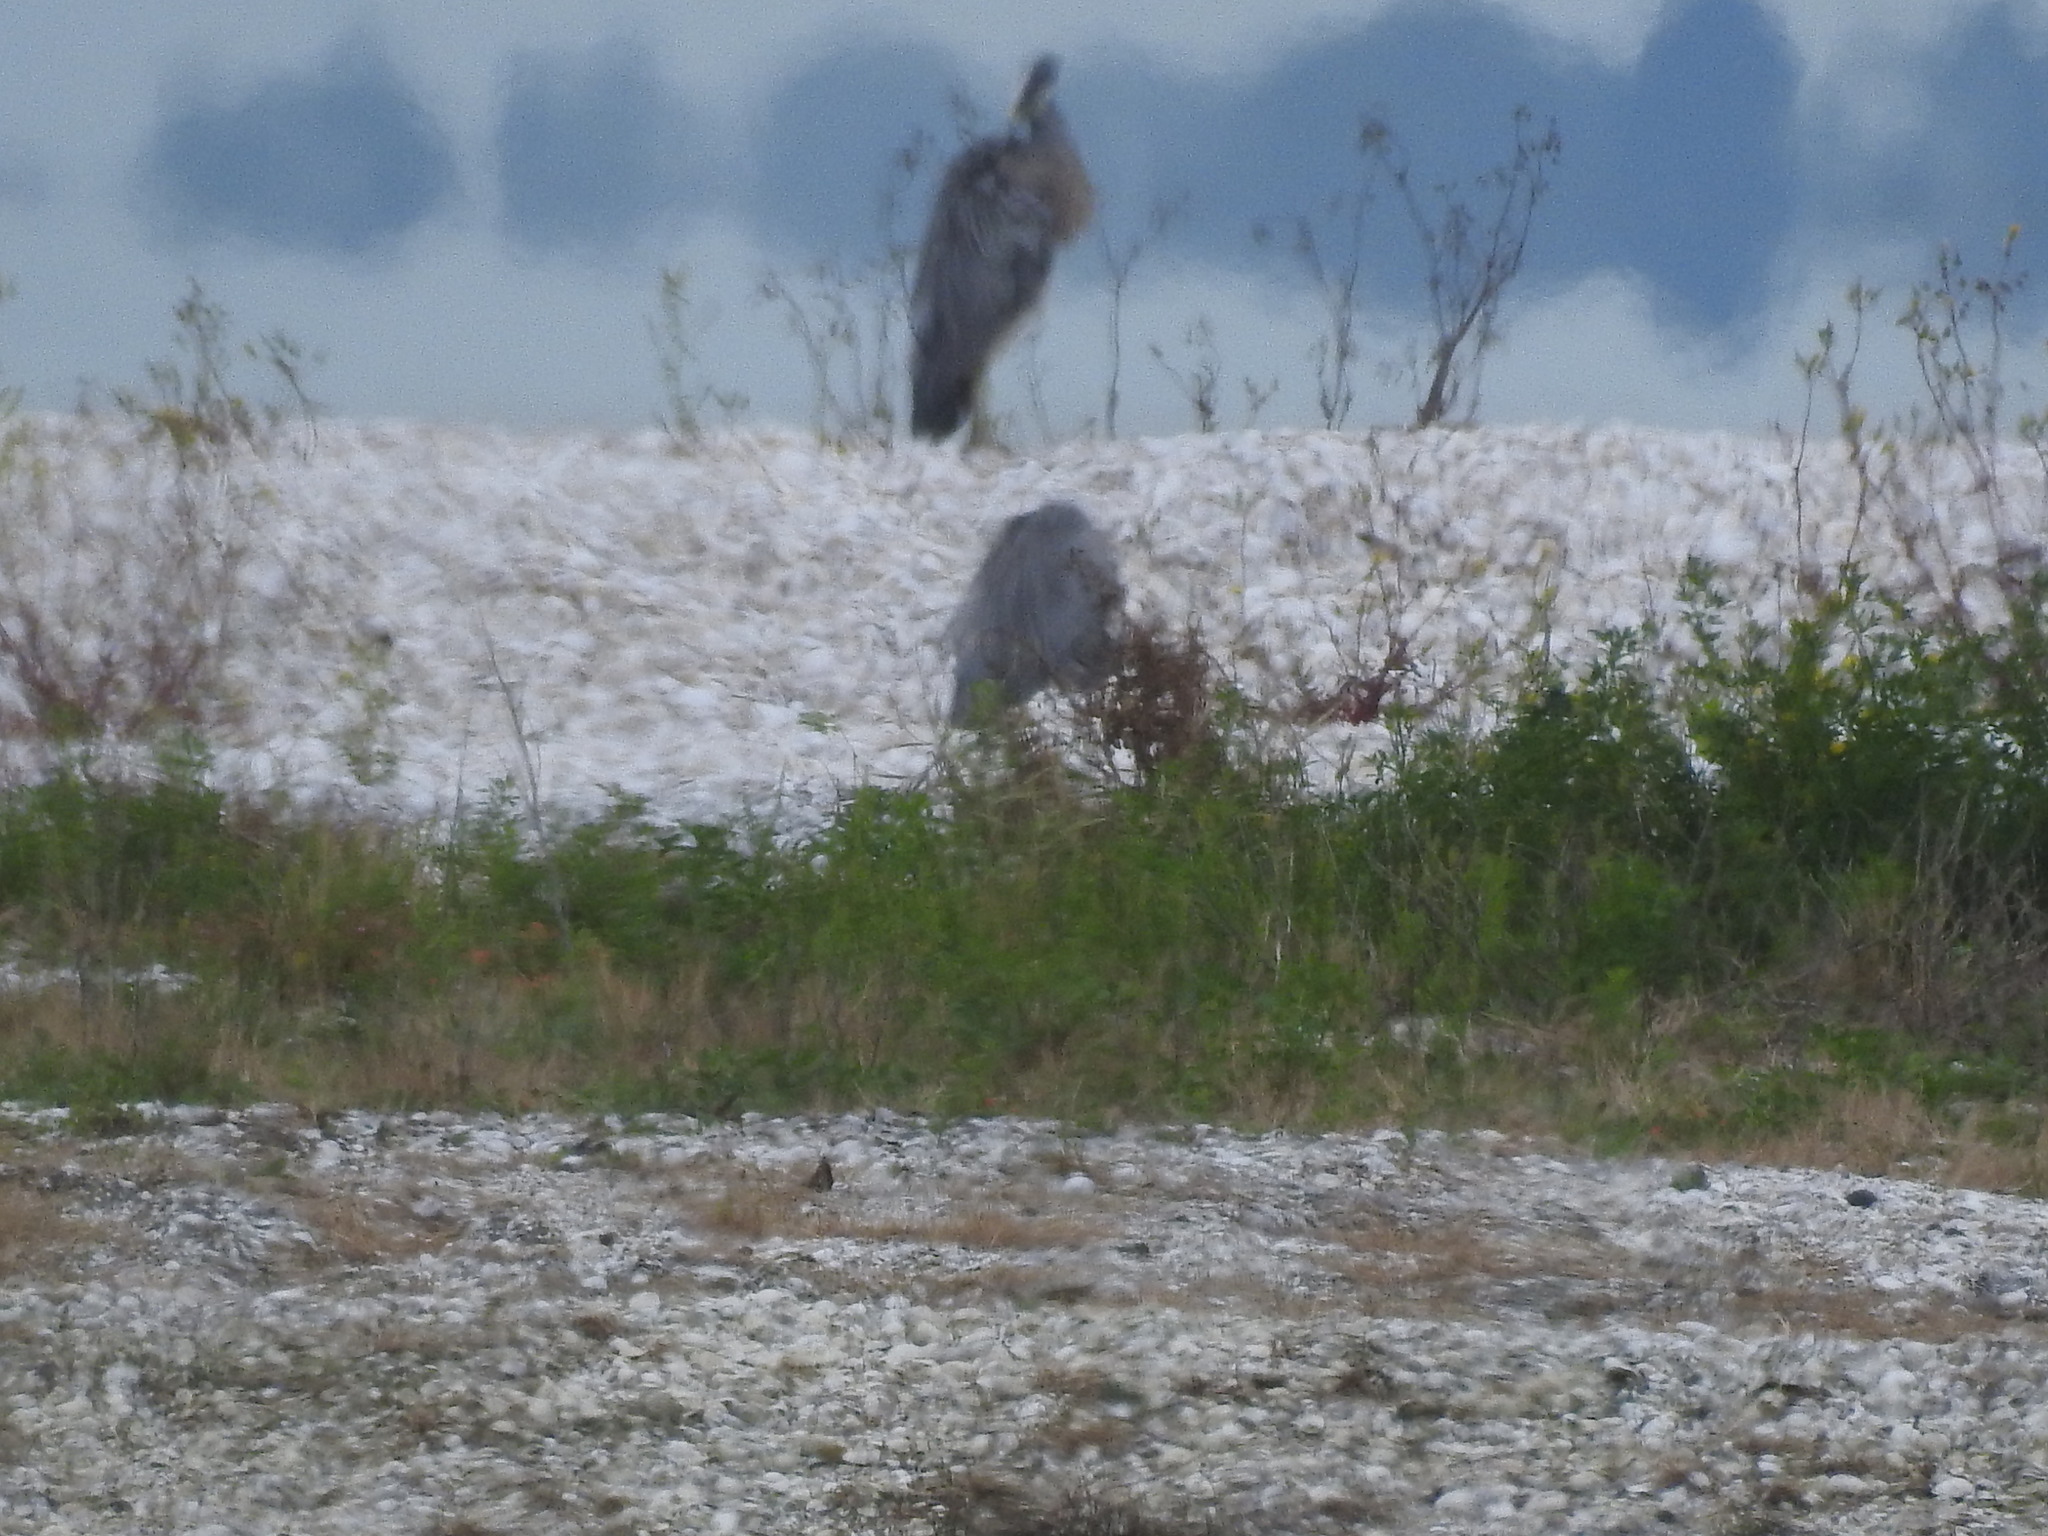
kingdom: Animalia
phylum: Chordata
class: Aves
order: Pelecaniformes
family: Ardeidae
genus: Egretta
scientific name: Egretta novaehollandiae
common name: White-faced heron
